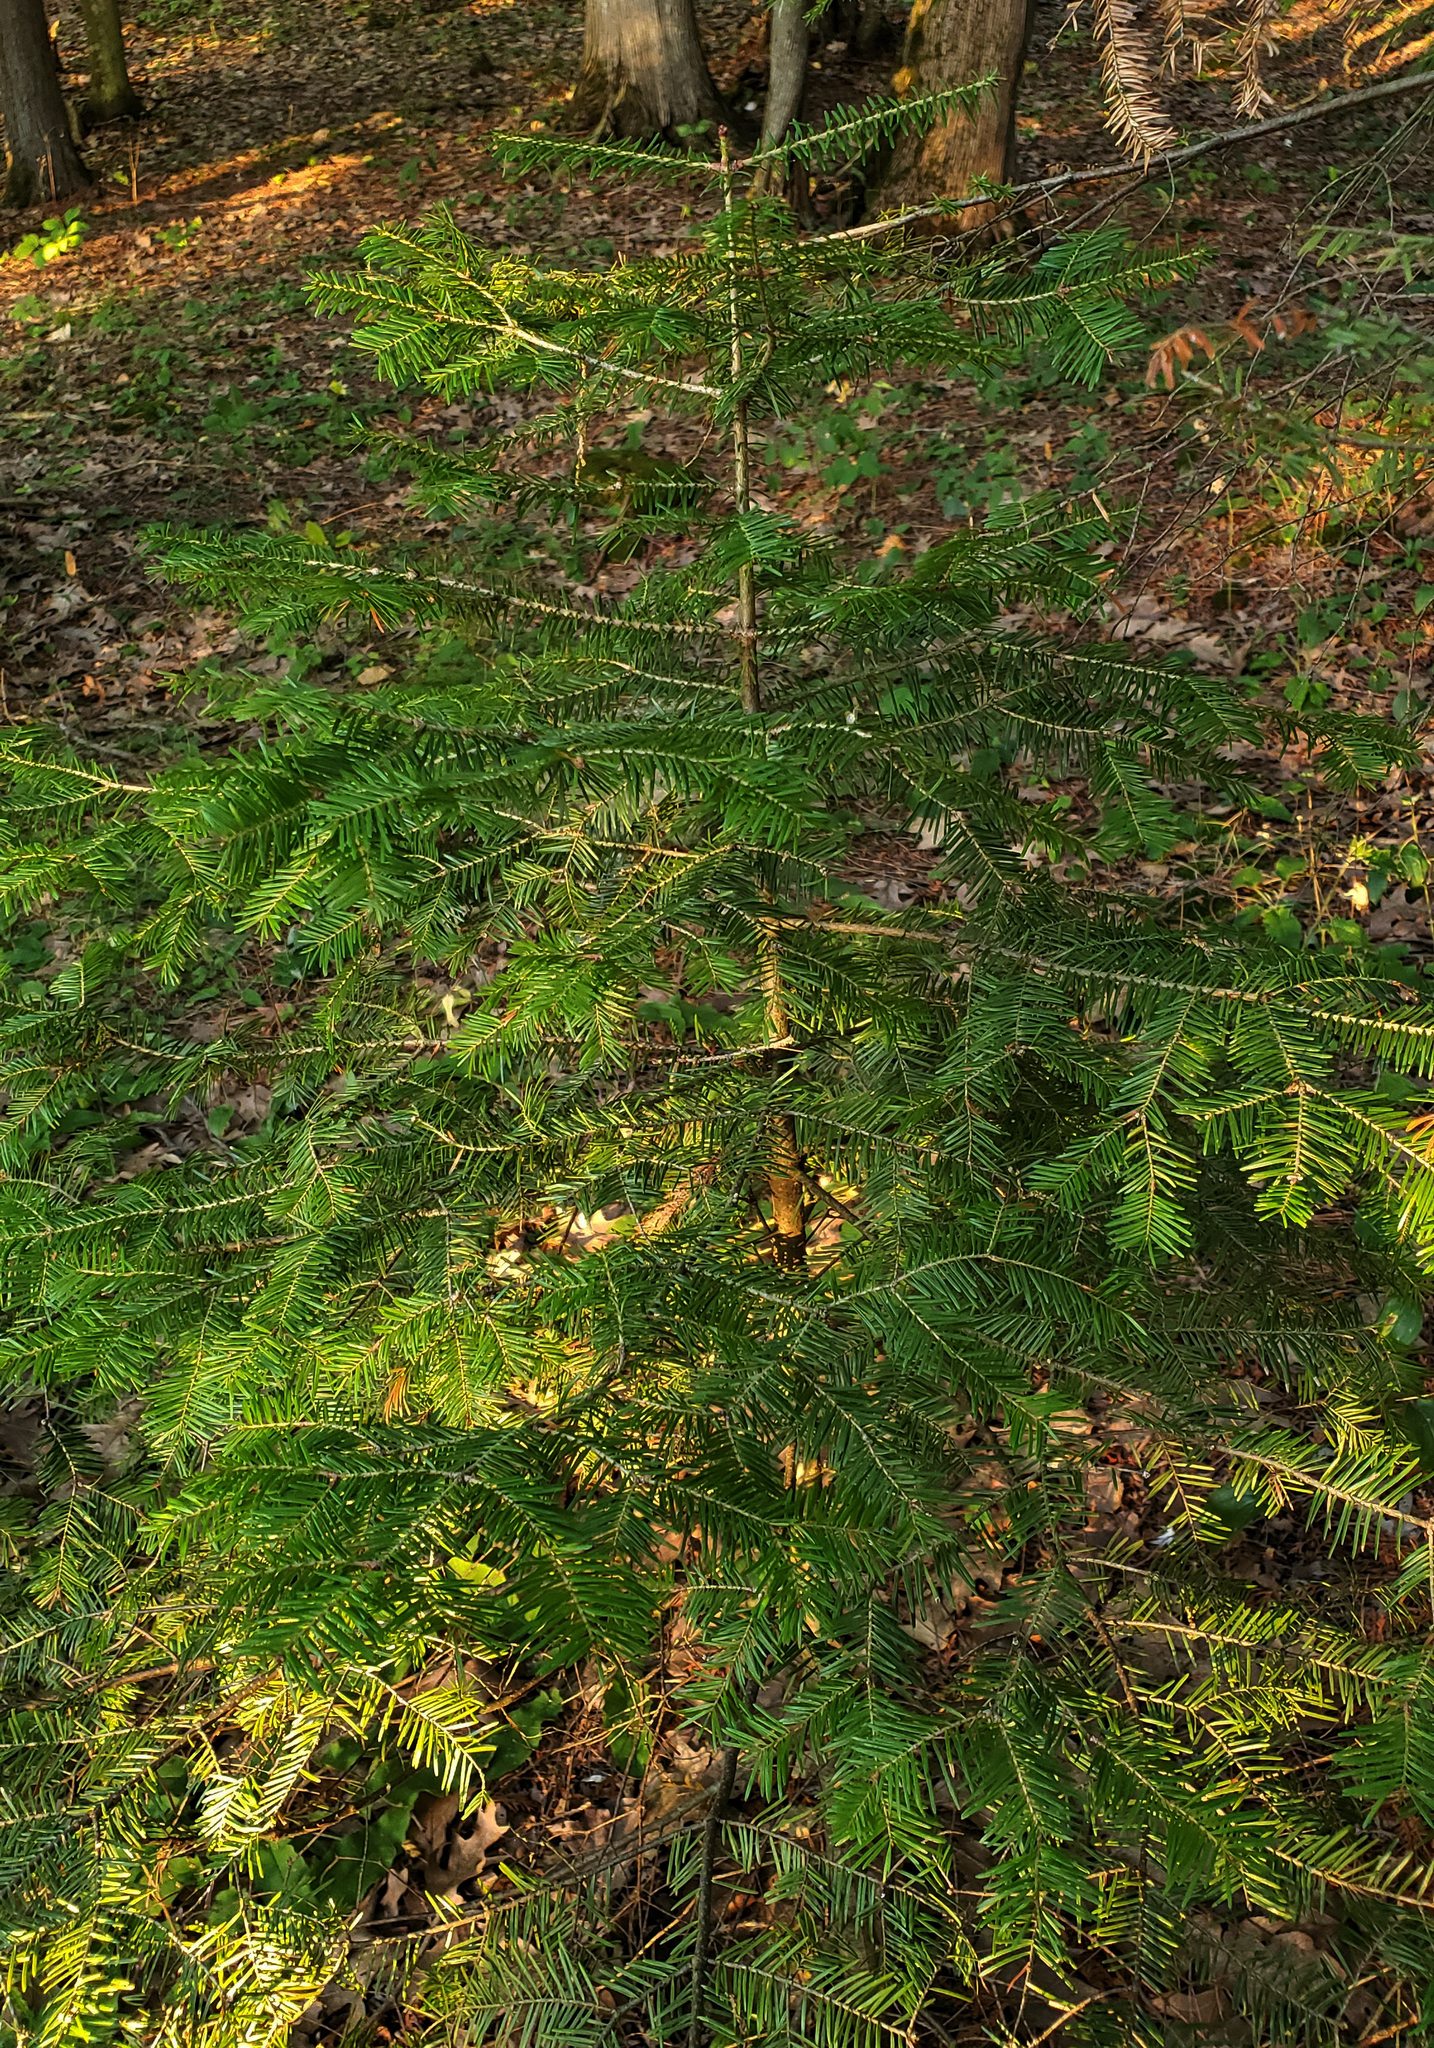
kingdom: Plantae
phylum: Tracheophyta
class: Pinopsida
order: Pinales
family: Pinaceae
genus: Abies
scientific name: Abies balsamea
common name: Balsam fir
